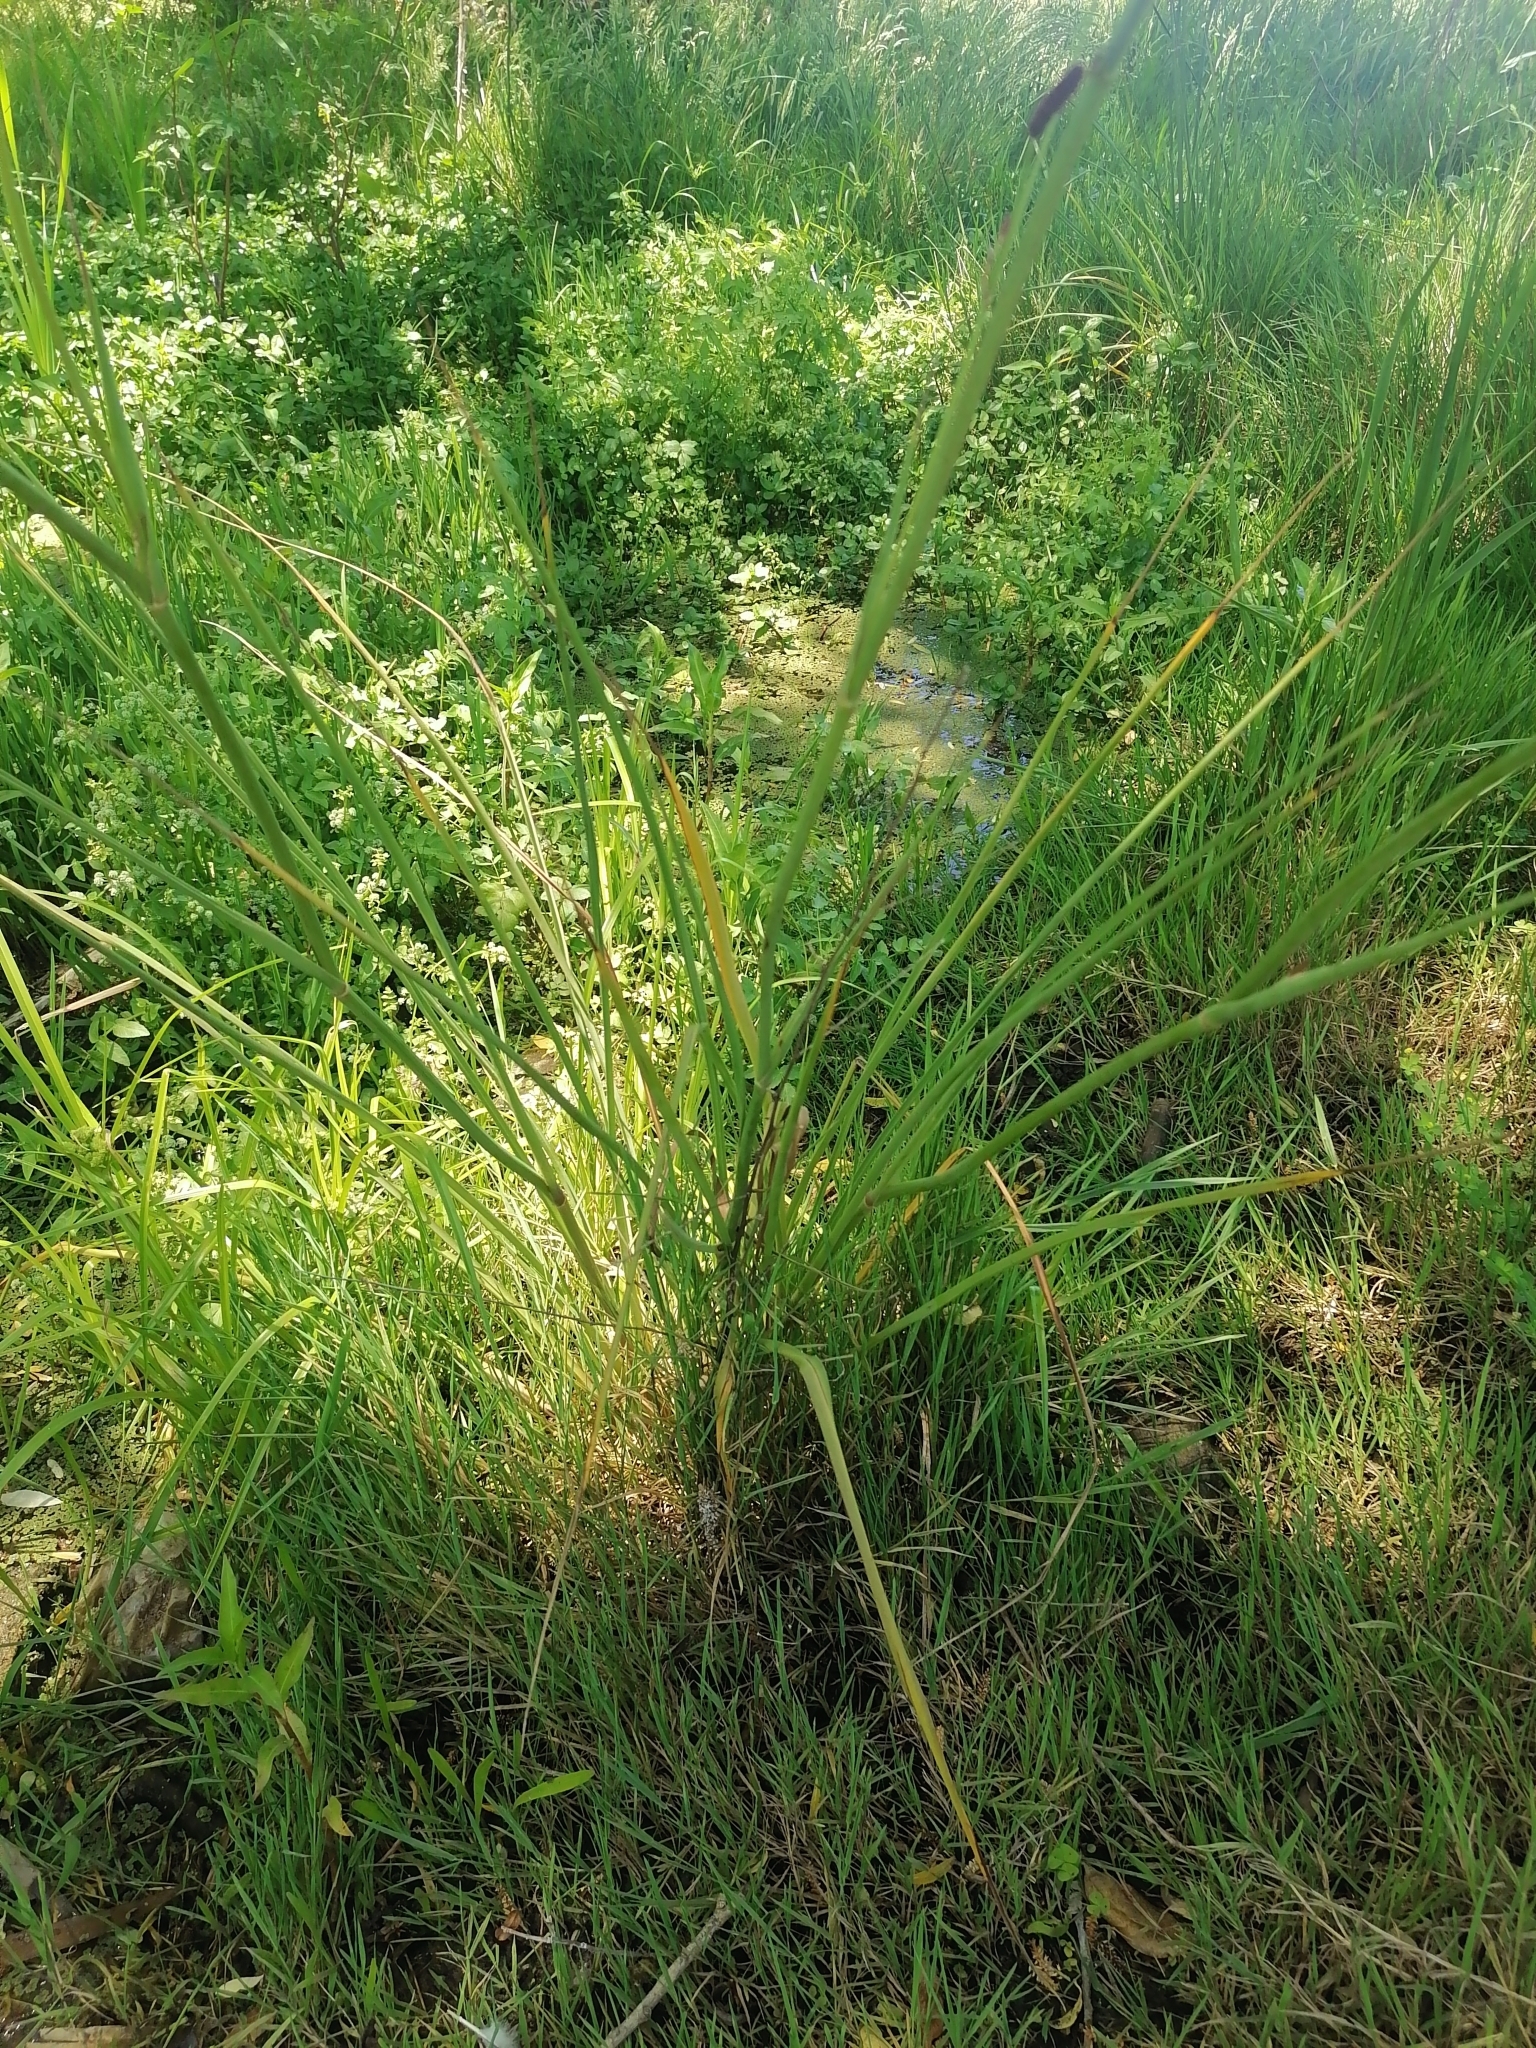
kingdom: Plantae
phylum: Tracheophyta
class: Magnoliopsida
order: Apiales
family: Apiaceae
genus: Eryngium
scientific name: Eryngium ebracteatum
